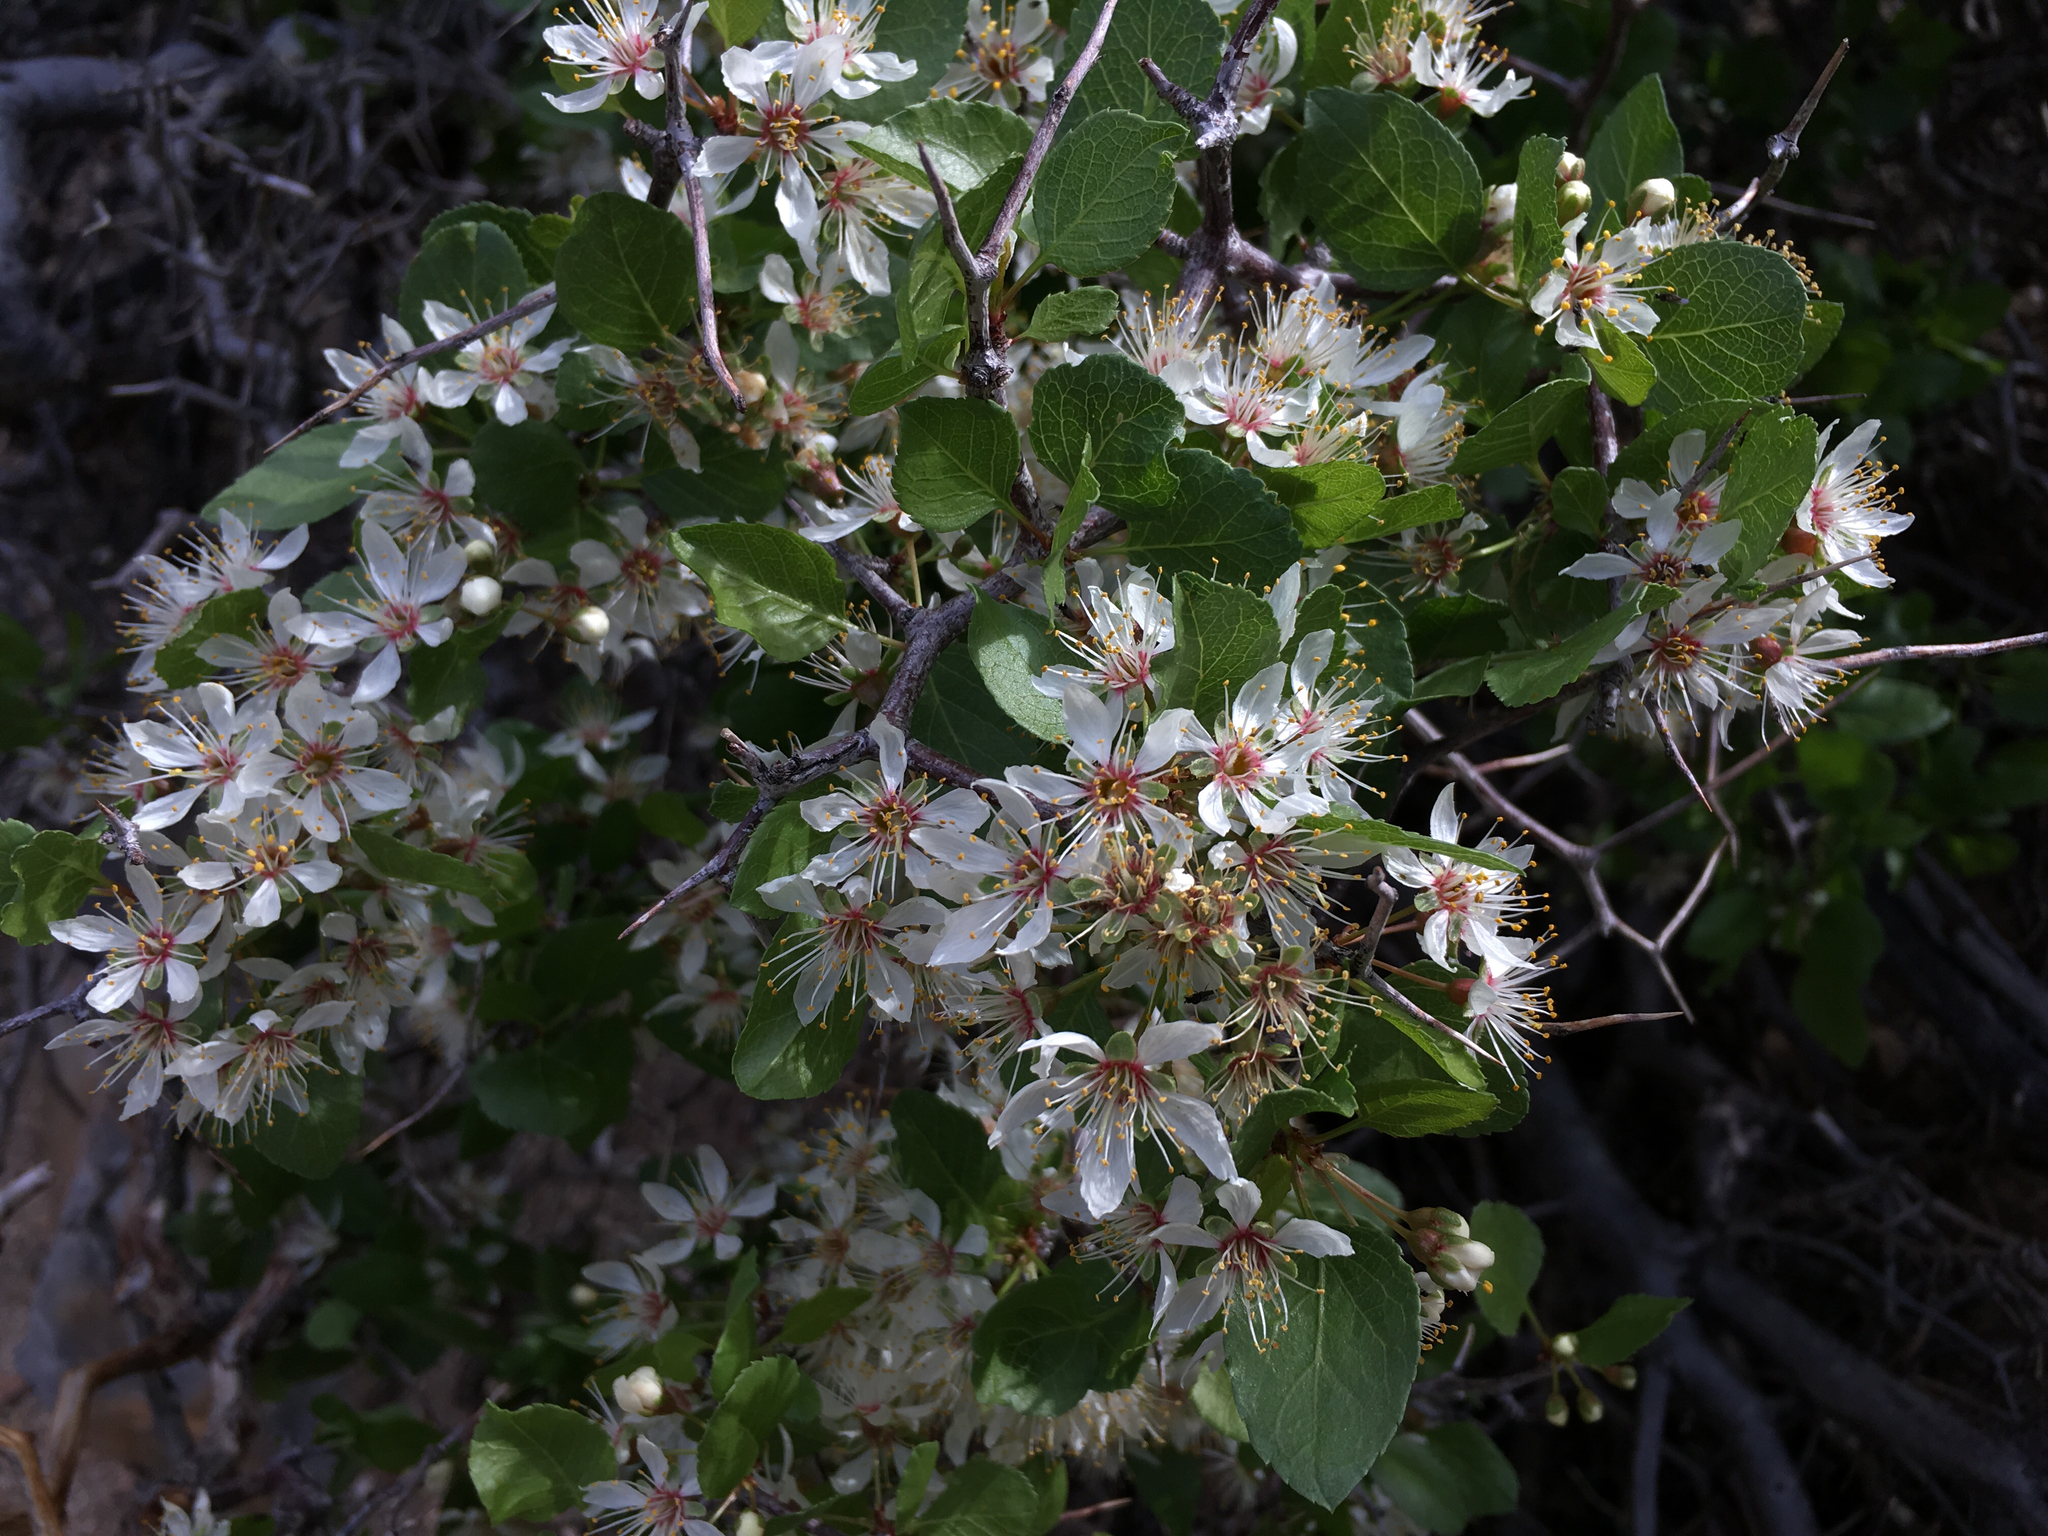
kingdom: Plantae
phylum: Tracheophyta
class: Magnoliopsida
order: Rosales
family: Rosaceae
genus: Prunus
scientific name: Prunus fremontii
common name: Desert apricot
